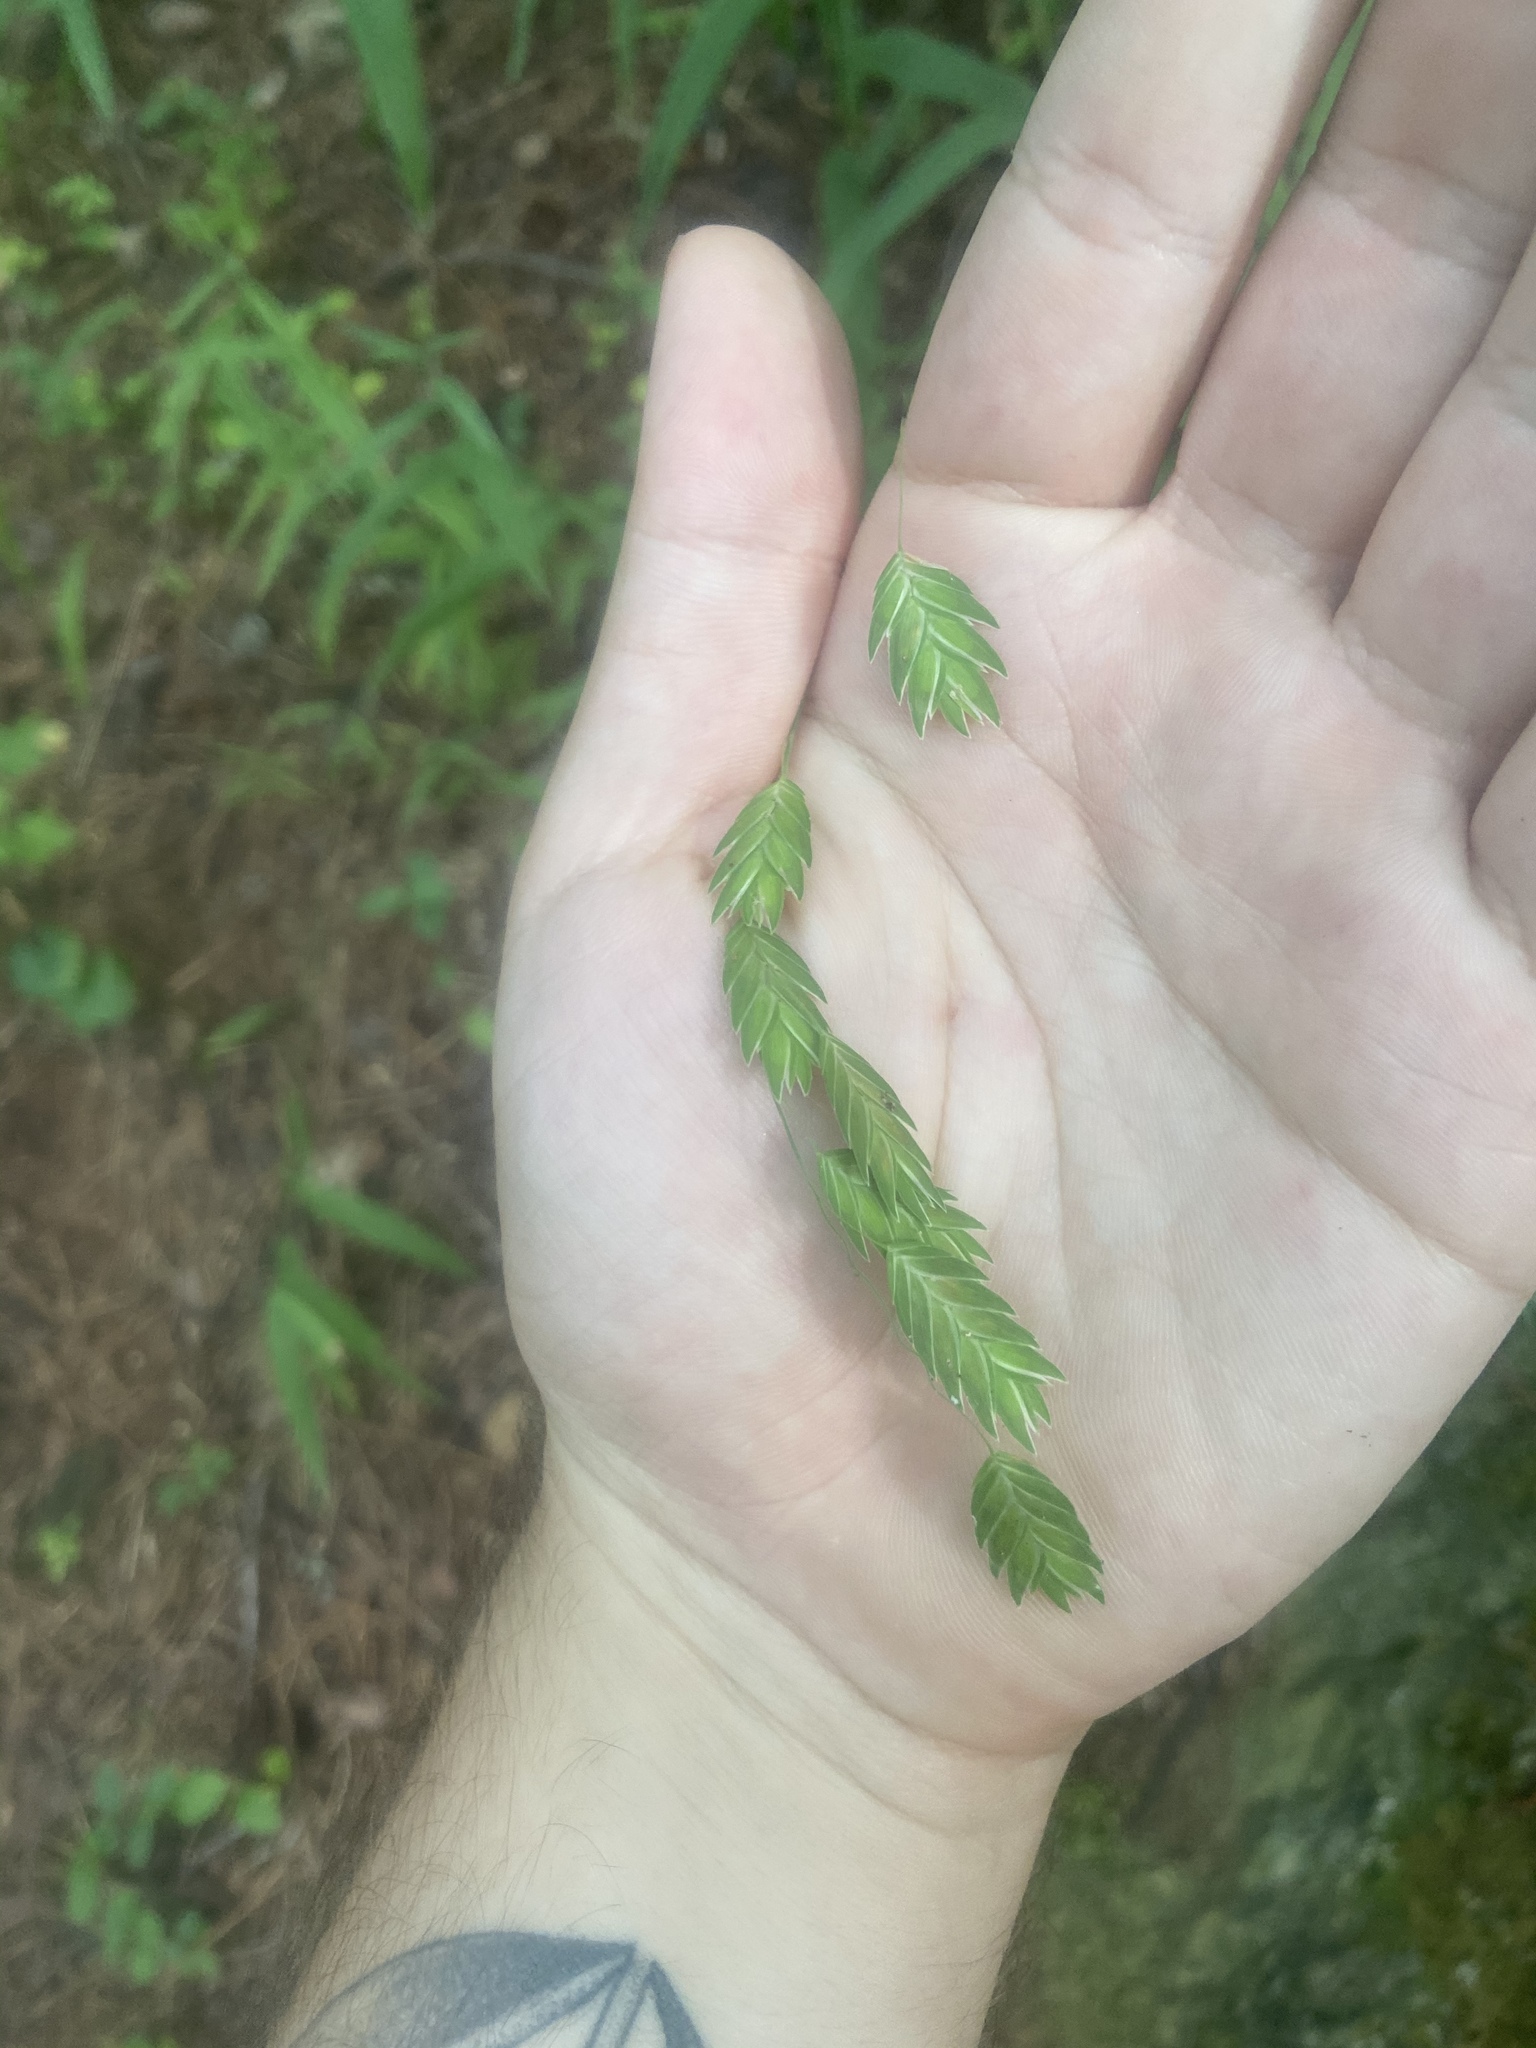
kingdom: Plantae
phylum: Tracheophyta
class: Liliopsida
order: Poales
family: Poaceae
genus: Chasmanthium
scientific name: Chasmanthium latifolium
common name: Broad-leaved chasmanthium
